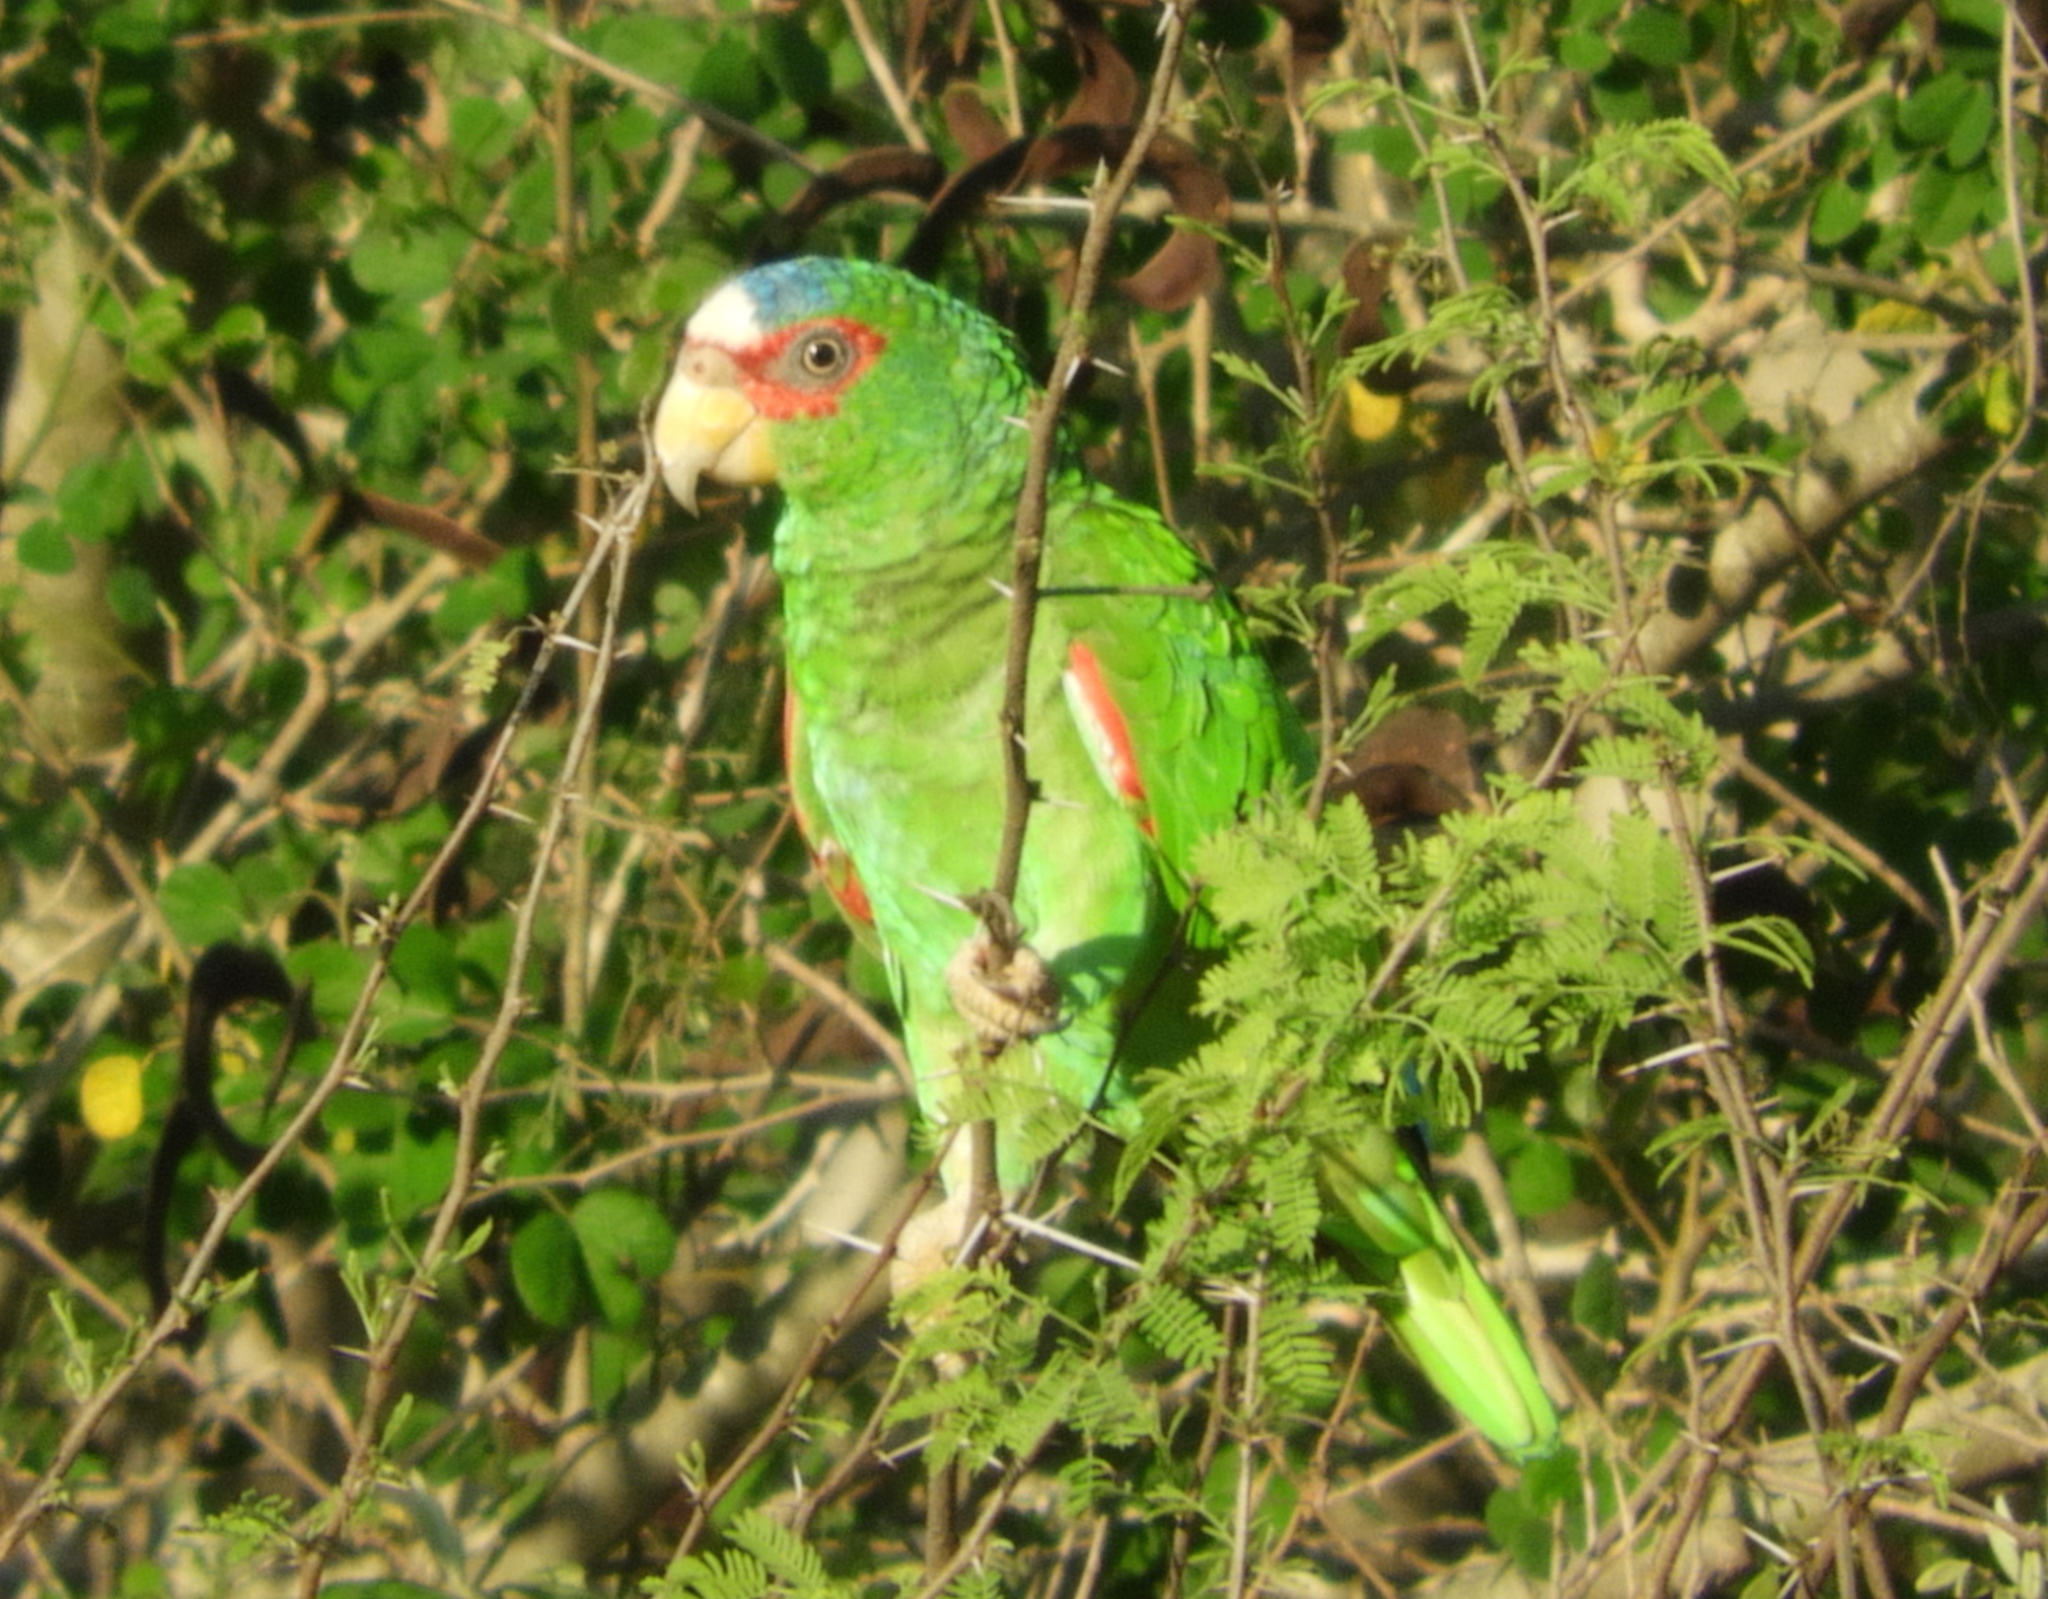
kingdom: Animalia
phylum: Chordata
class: Aves
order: Psittaciformes
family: Psittacidae
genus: Amazona
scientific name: Amazona albifrons
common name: White-fronted amazon
